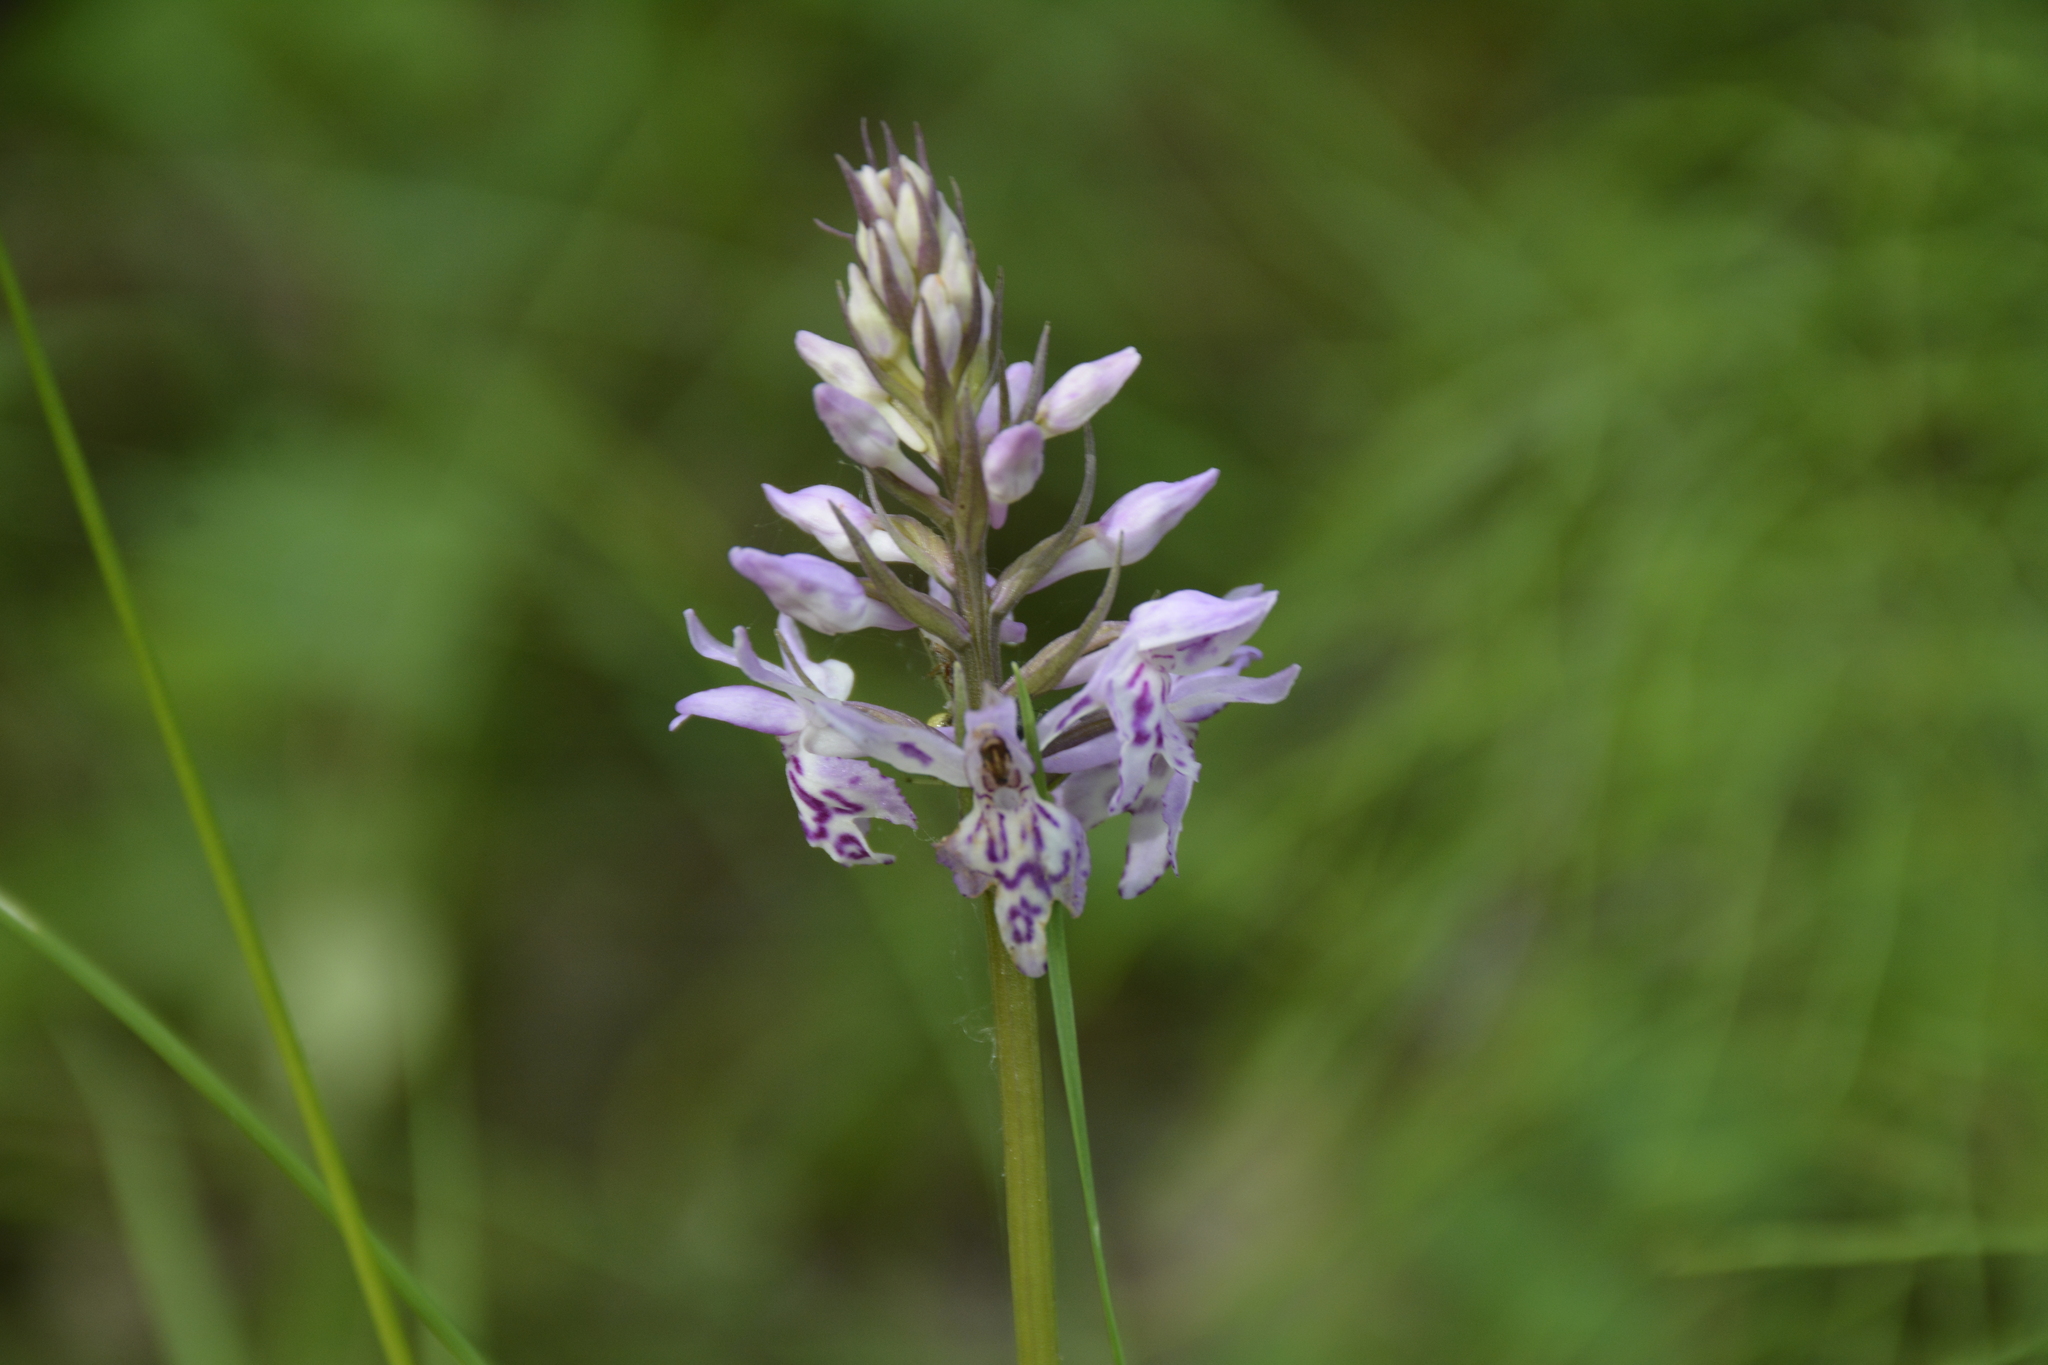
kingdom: Plantae
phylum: Tracheophyta
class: Liliopsida
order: Asparagales
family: Orchidaceae
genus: Dactylorhiza
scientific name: Dactylorhiza maculata
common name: Heath spotted-orchid
